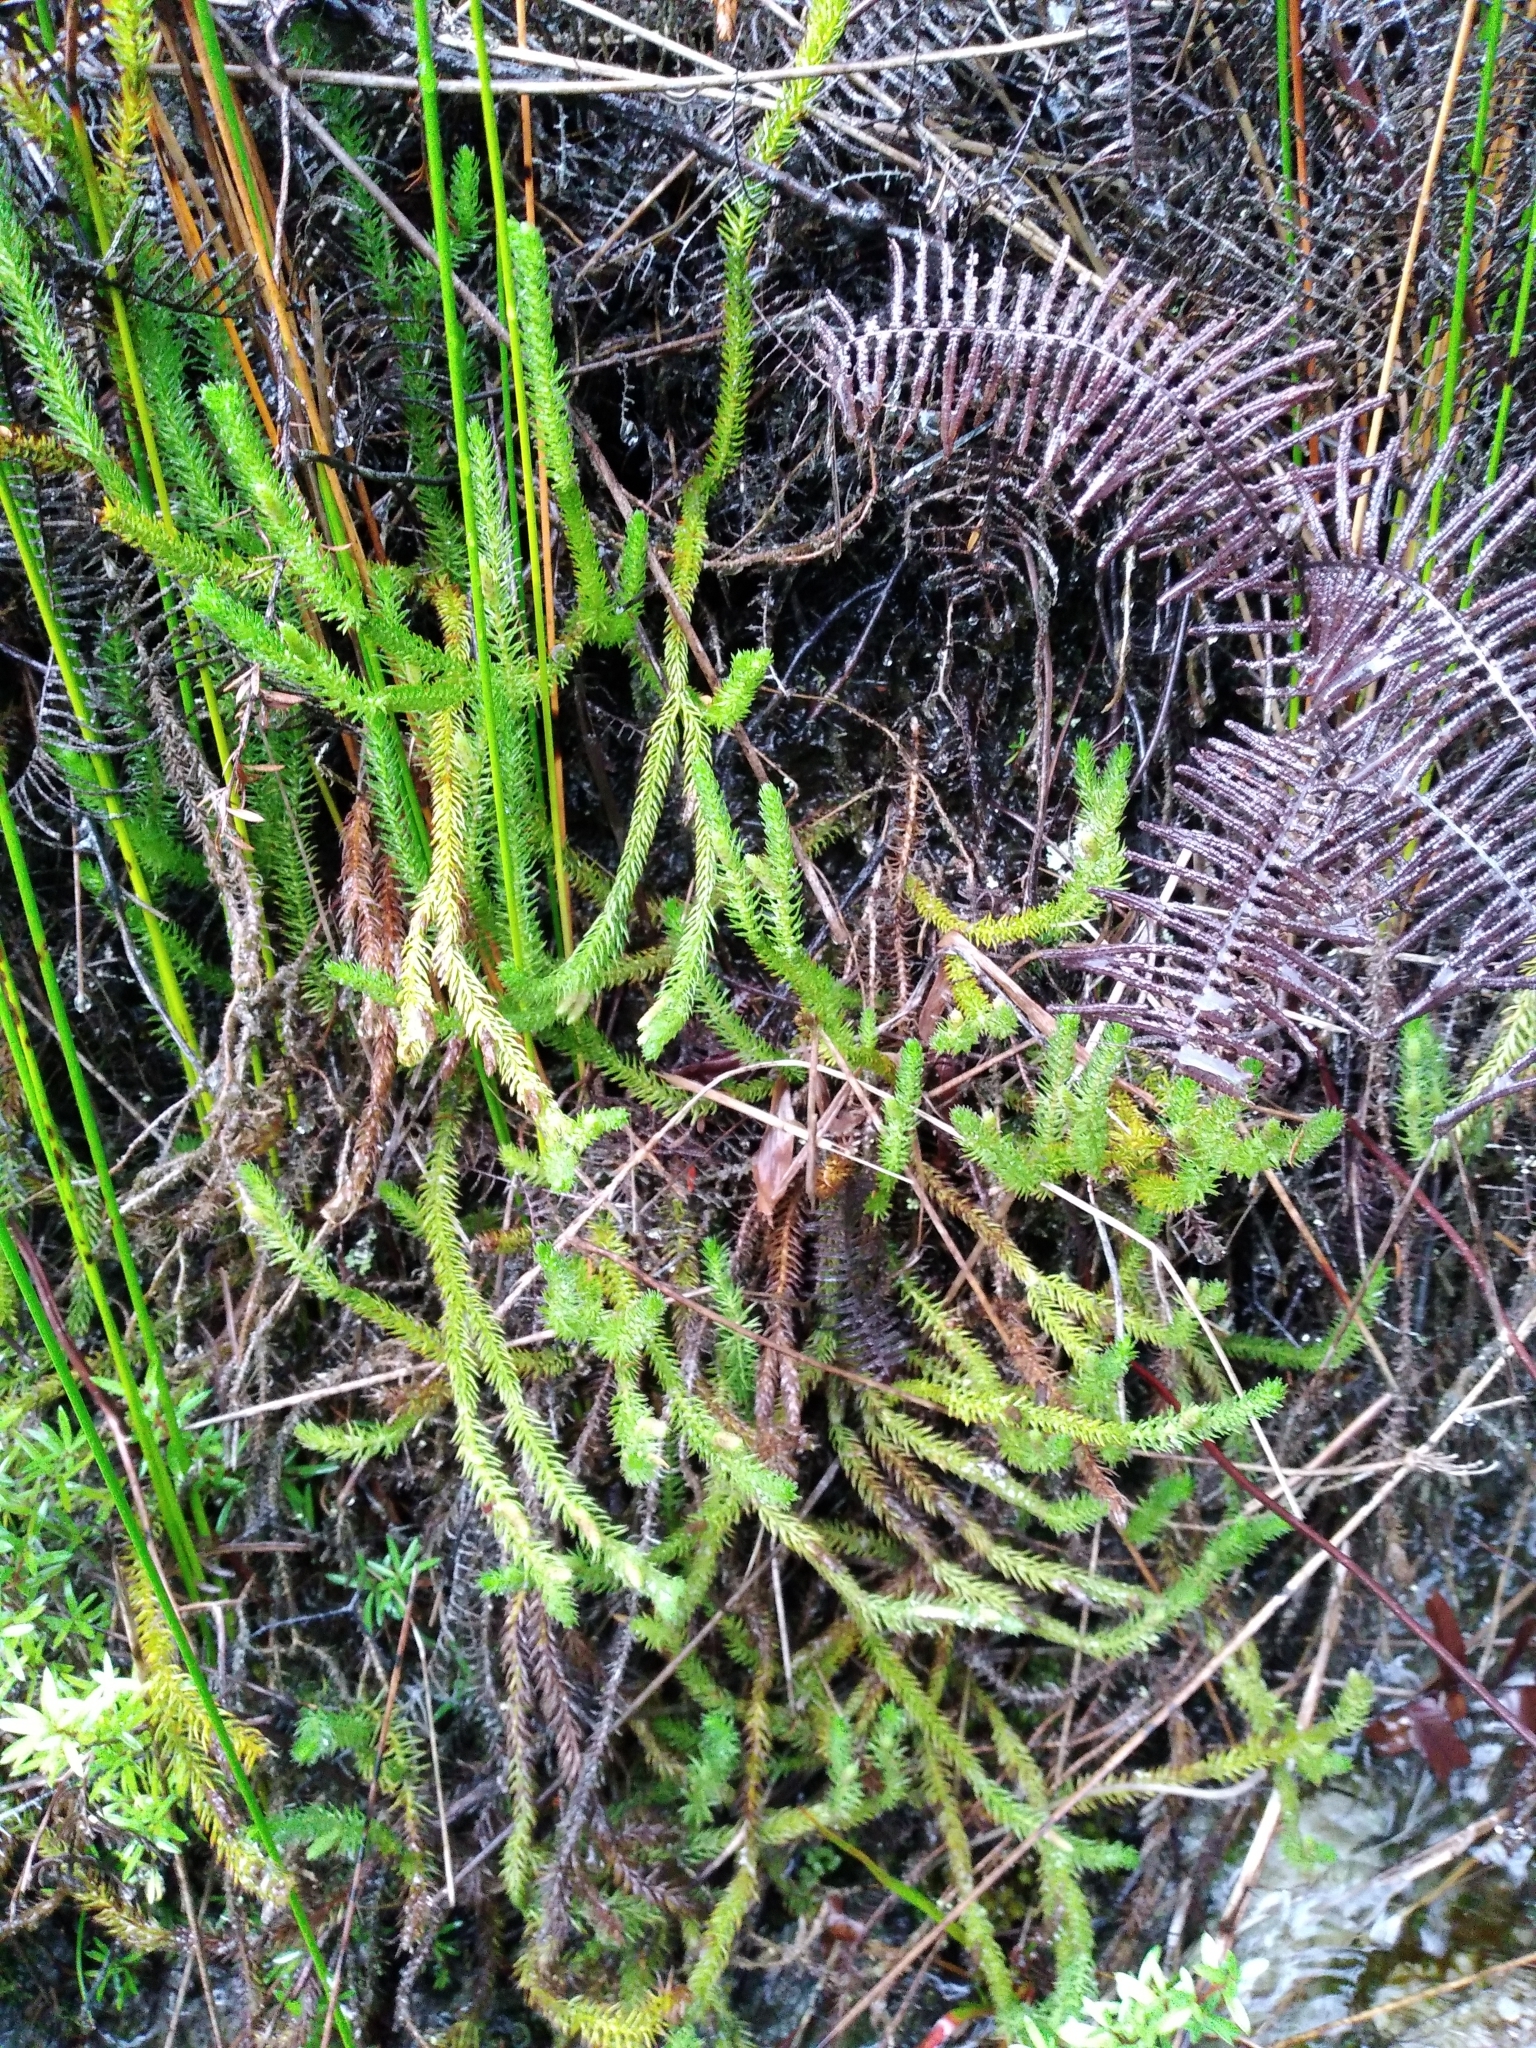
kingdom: Plantae
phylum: Tracheophyta
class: Lycopodiopsida
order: Lycopodiales
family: Lycopodiaceae
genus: Lateristachys
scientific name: Lateristachys lateralis
